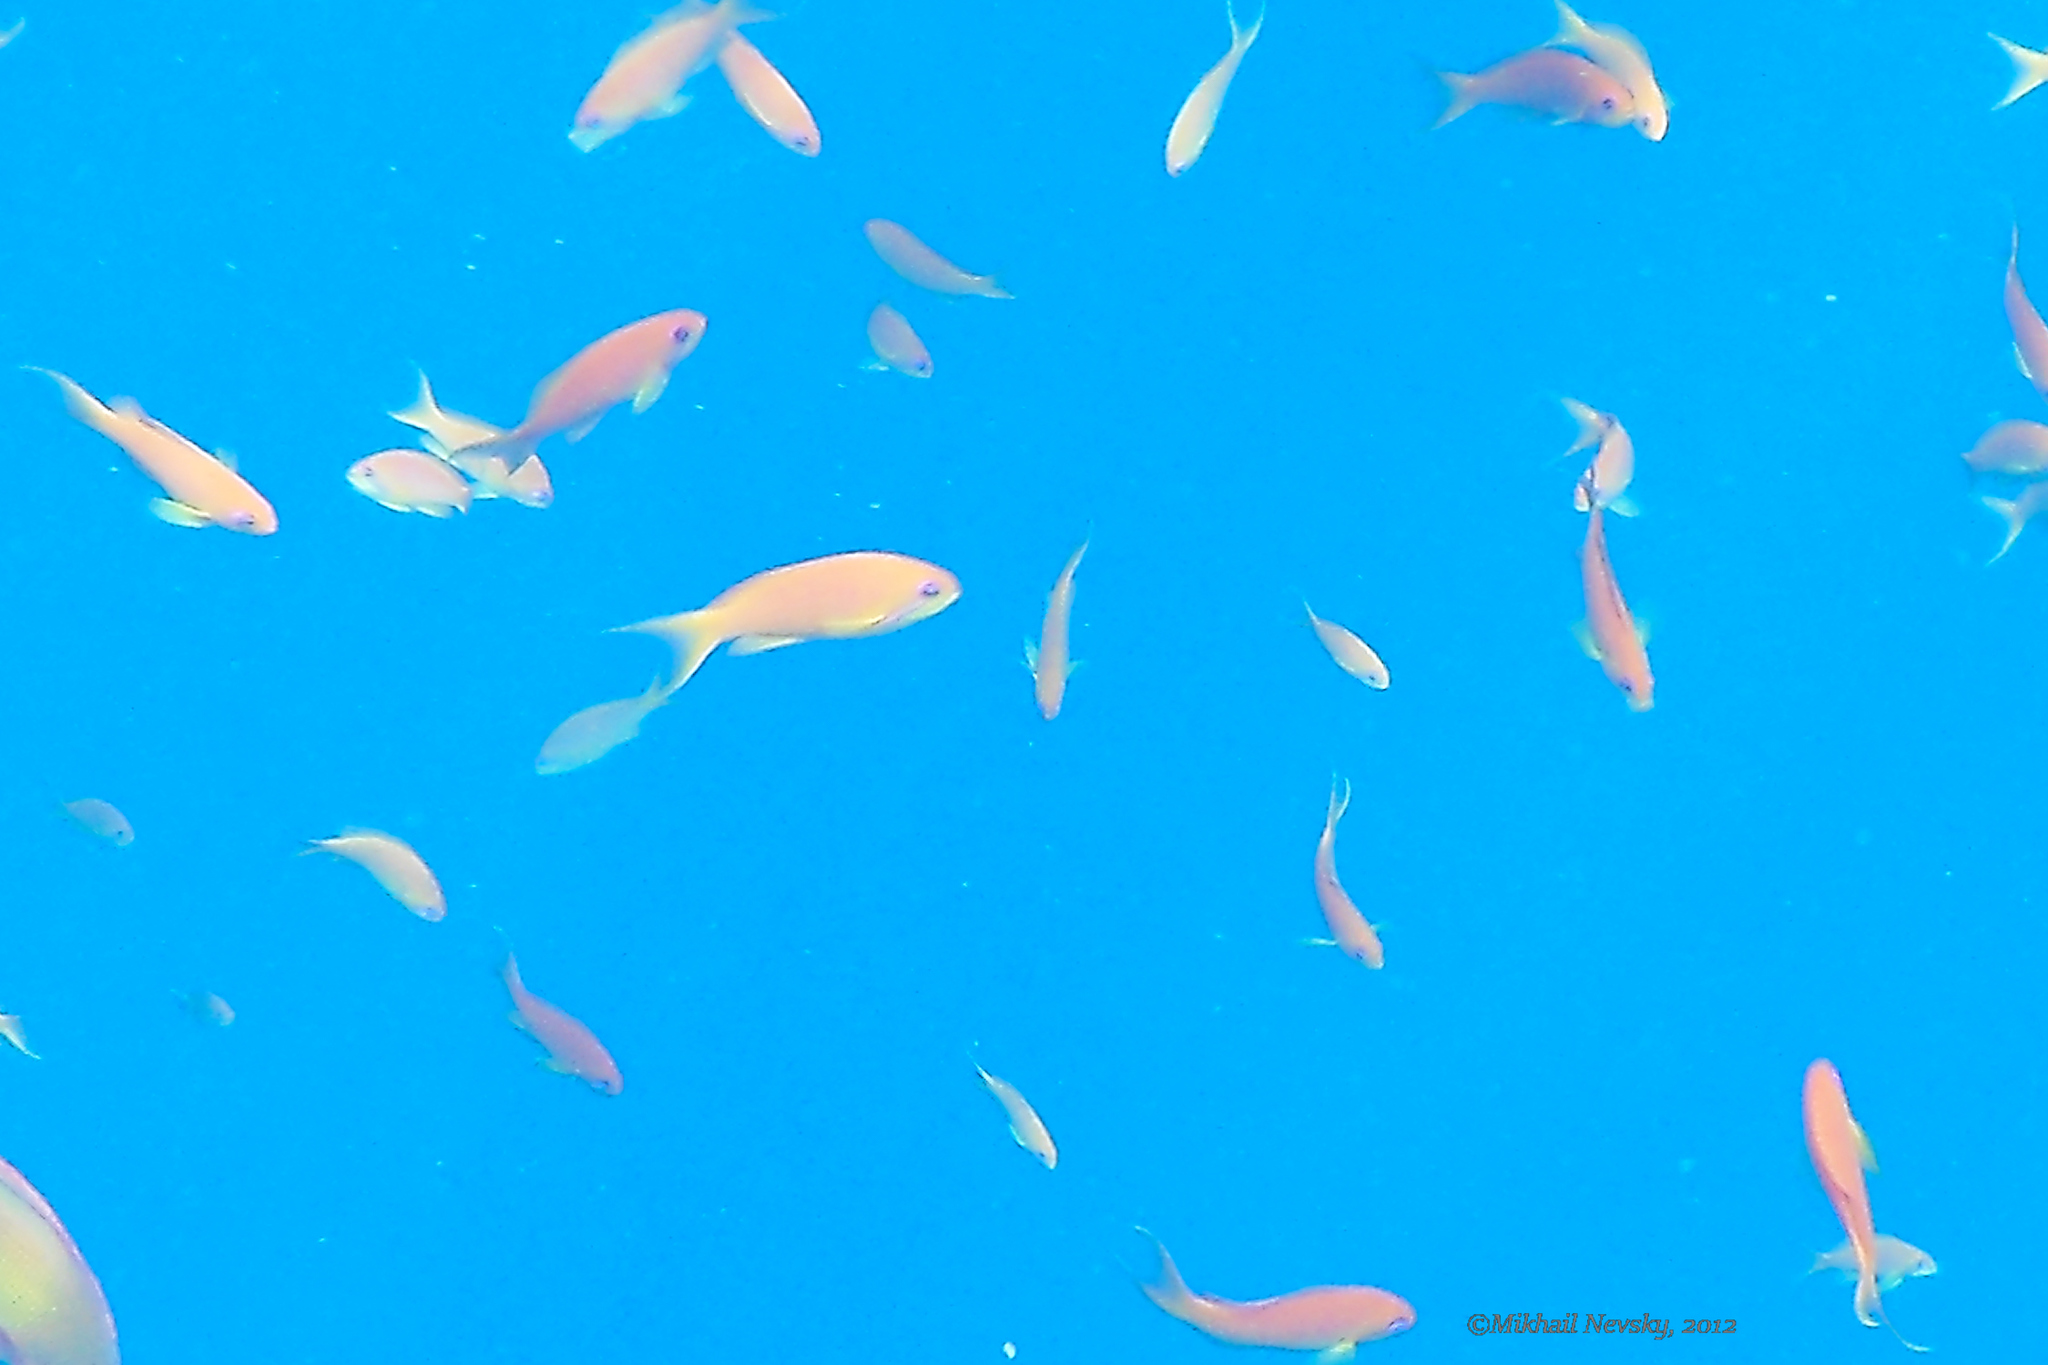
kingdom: Animalia
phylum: Chordata
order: Perciformes
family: Serranidae
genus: Pseudanthias
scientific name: Pseudanthias squamipinnis
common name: Scalefin anthias
